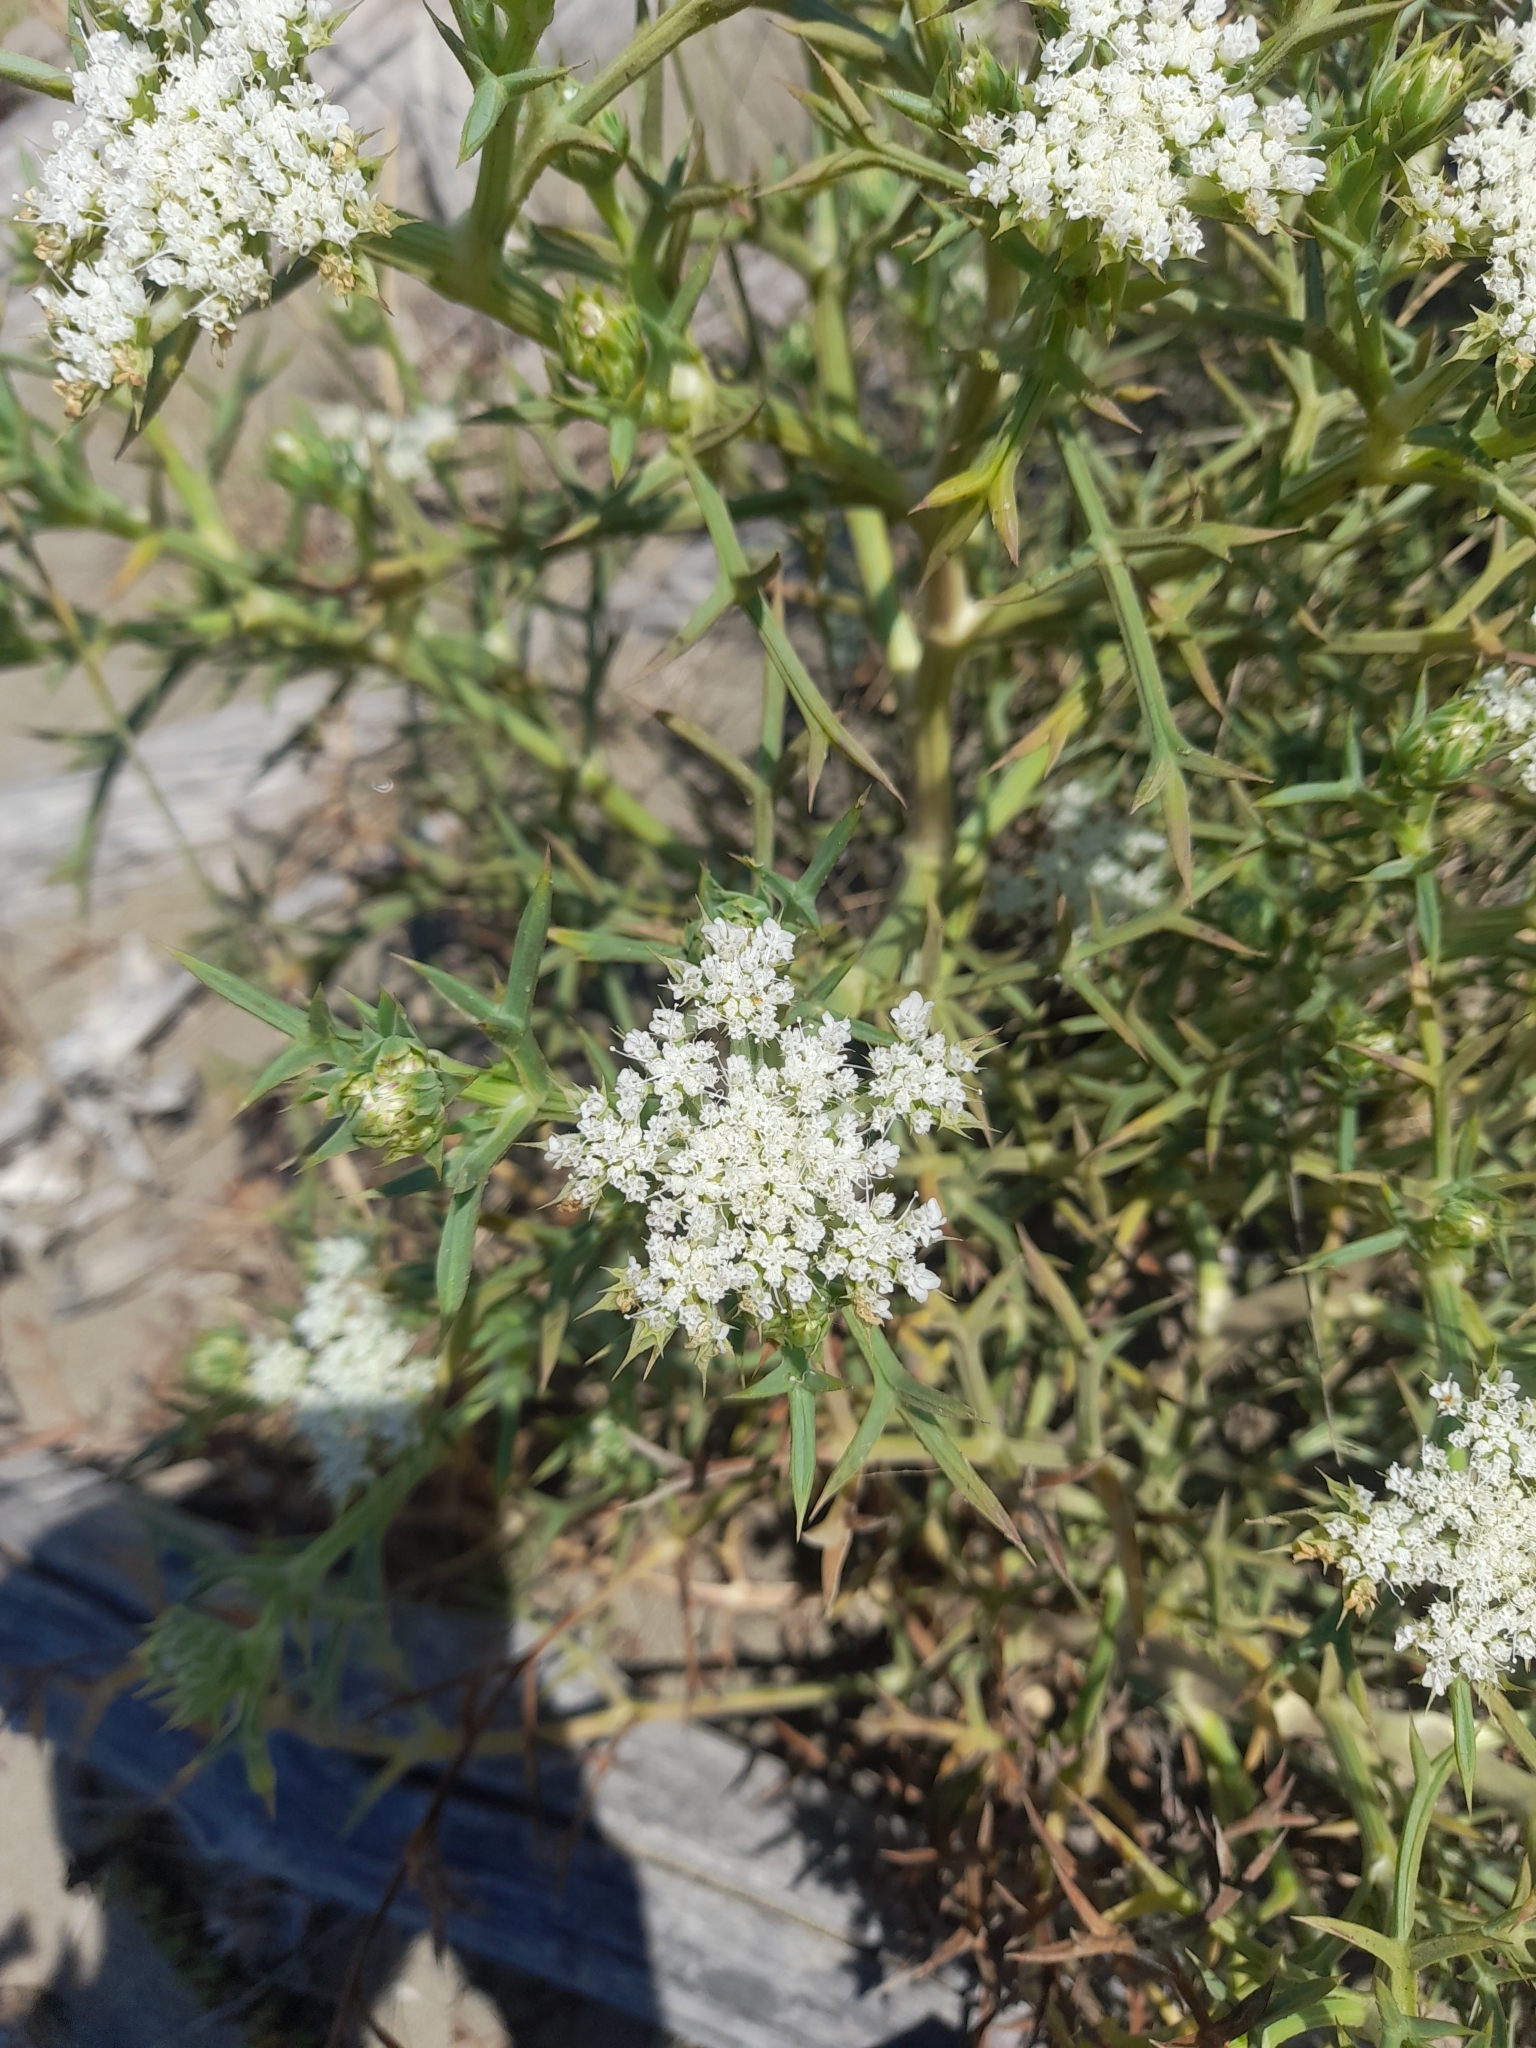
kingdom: Plantae
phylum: Tracheophyta
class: Magnoliopsida
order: Apiales
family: Apiaceae
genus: Echinophora
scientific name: Echinophora spinosa
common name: Prickly samphire
